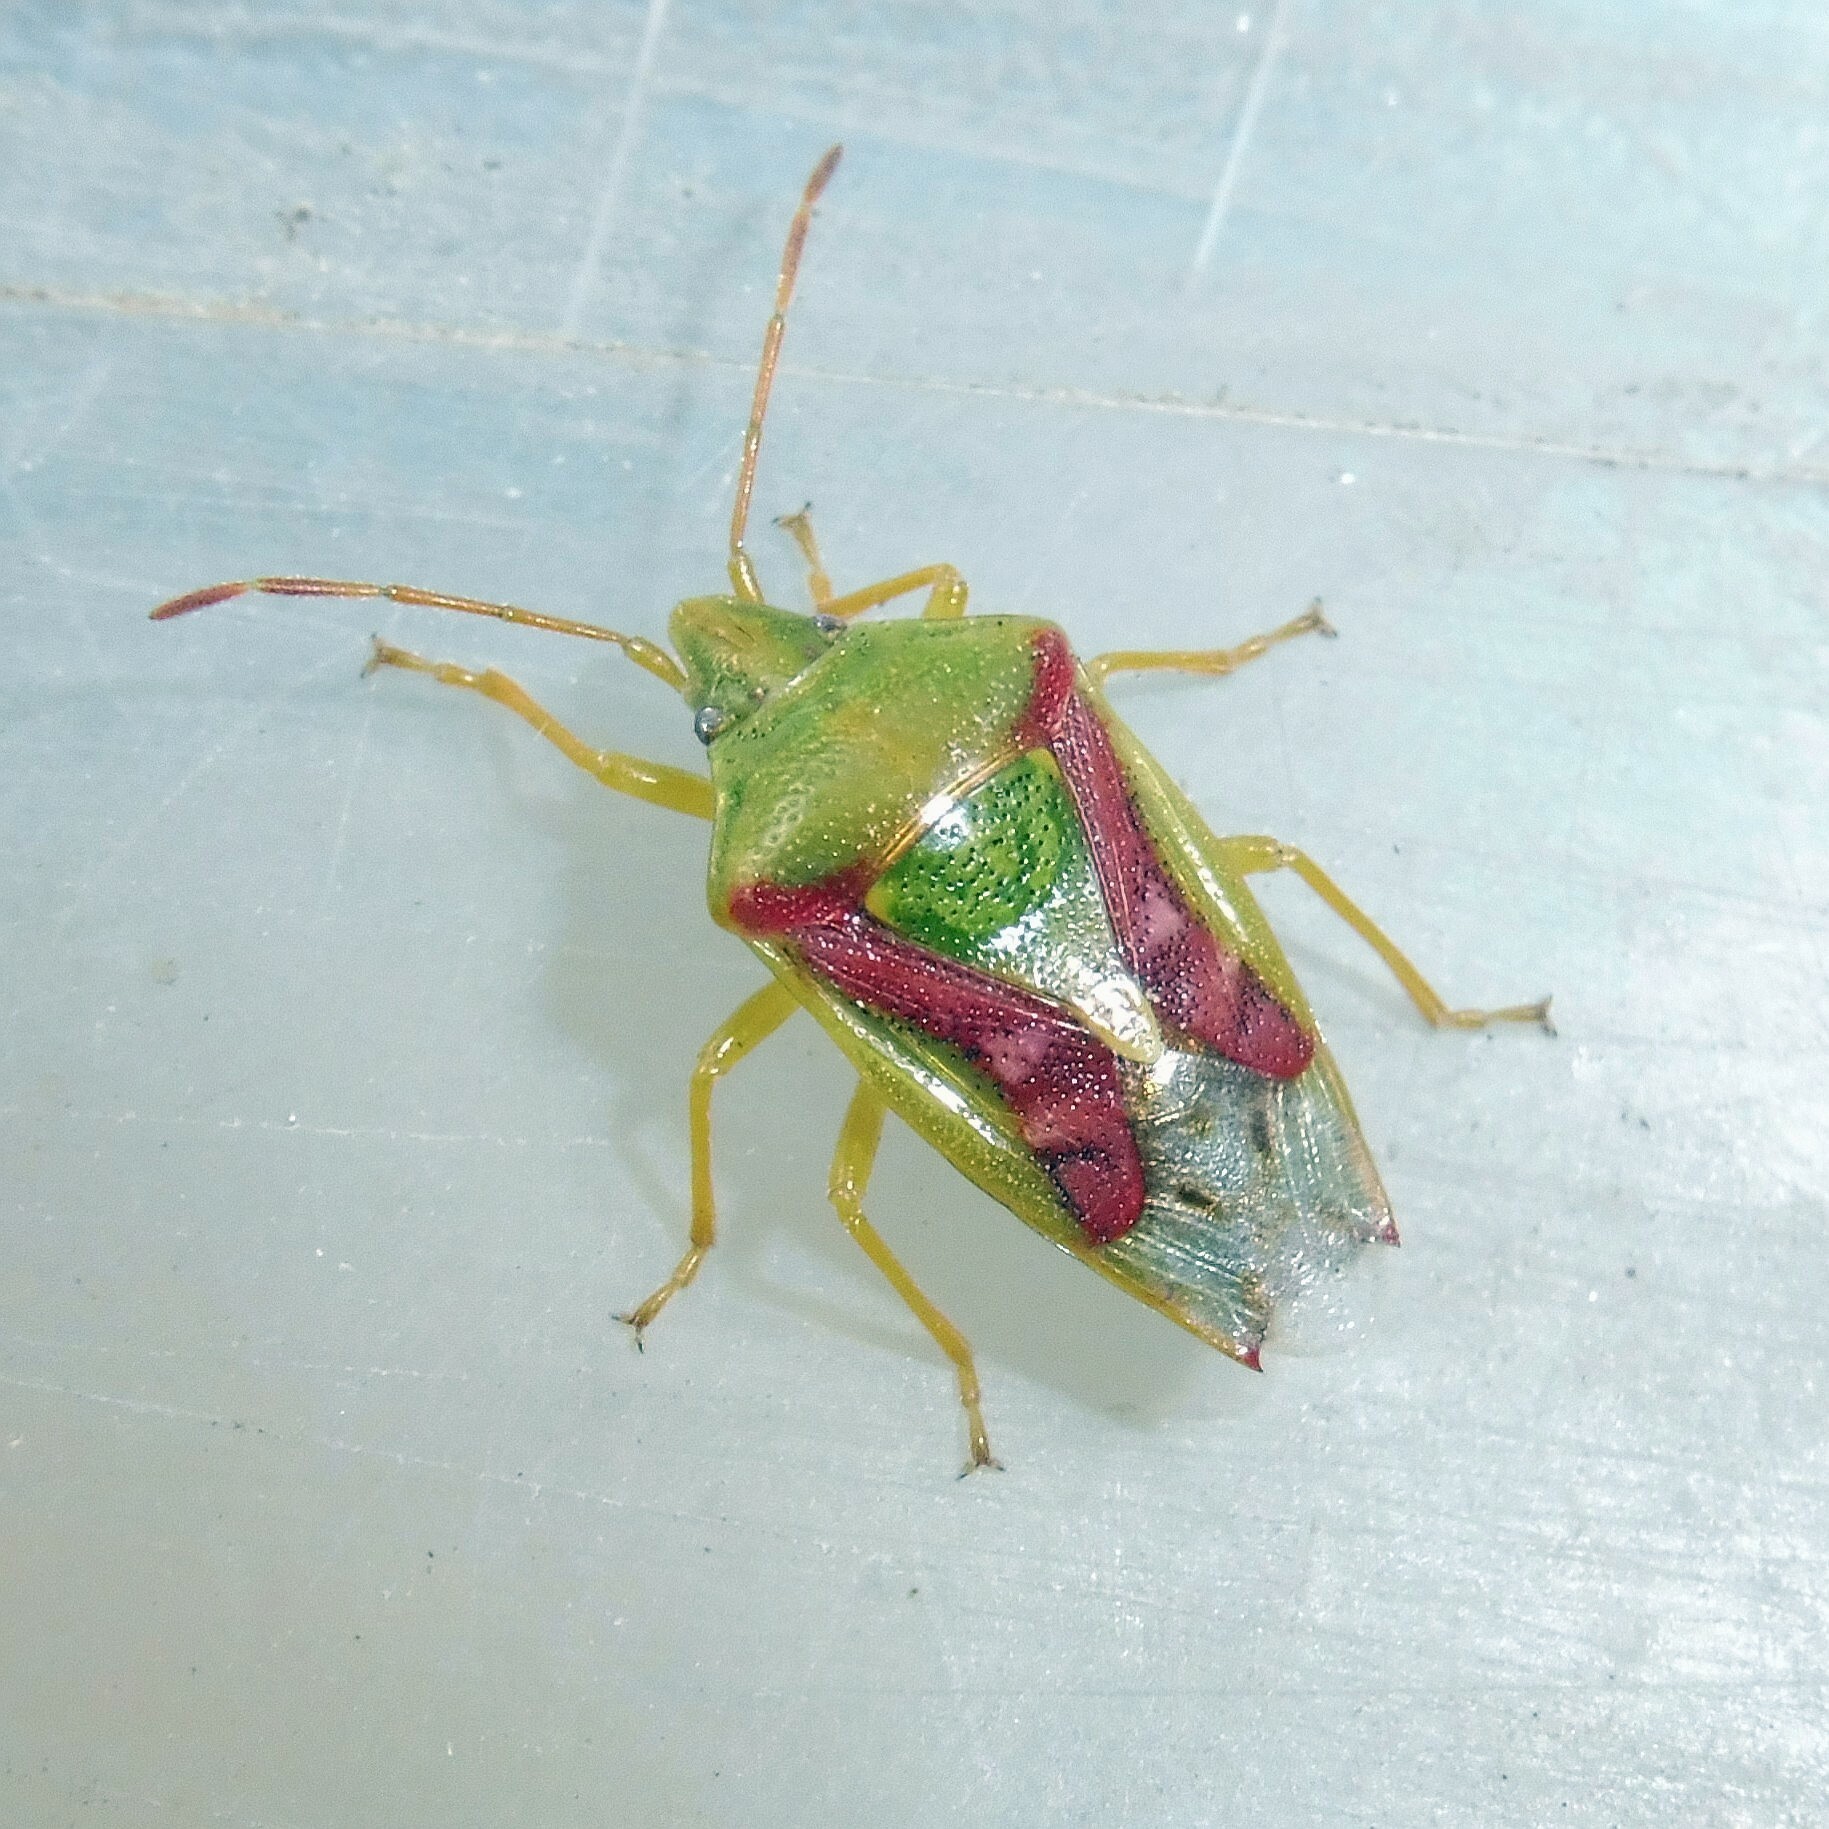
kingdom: Animalia
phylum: Arthropoda
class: Insecta
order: Hemiptera
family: Acanthosomatidae
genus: Cyphostethus
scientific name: Cyphostethus tristriatus
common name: Juniper shieldbug
